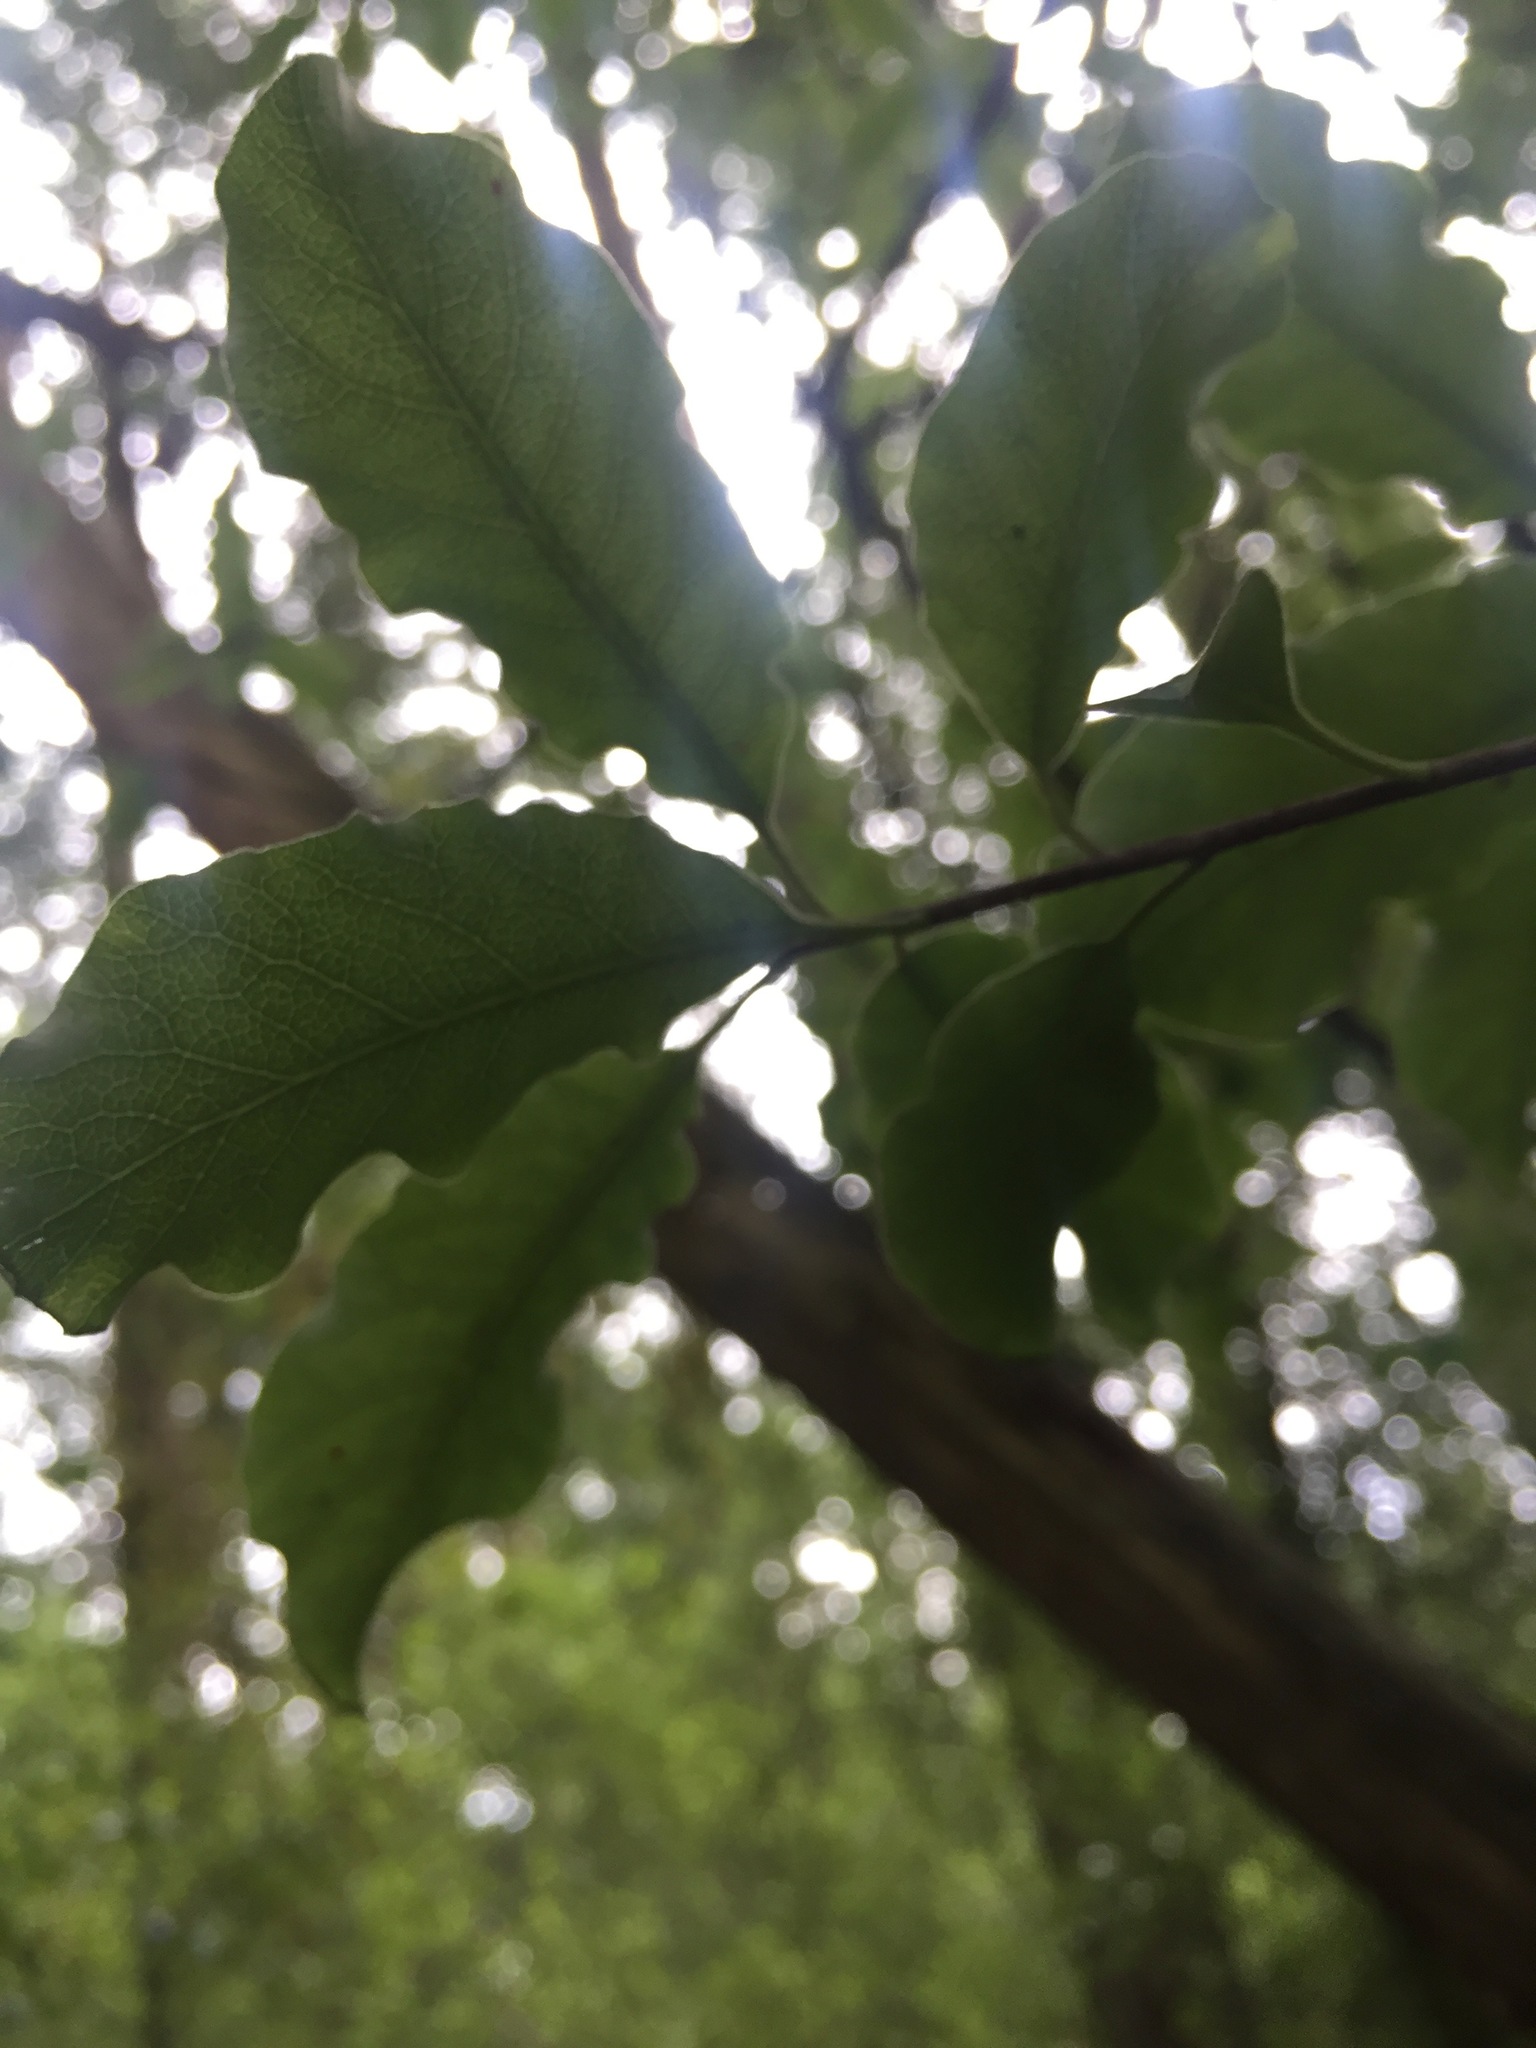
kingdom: Plantae
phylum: Tracheophyta
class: Magnoliopsida
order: Apiales
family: Pittosporaceae
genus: Pittosporum
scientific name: Pittosporum tenuifolium
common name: Kohuhu
